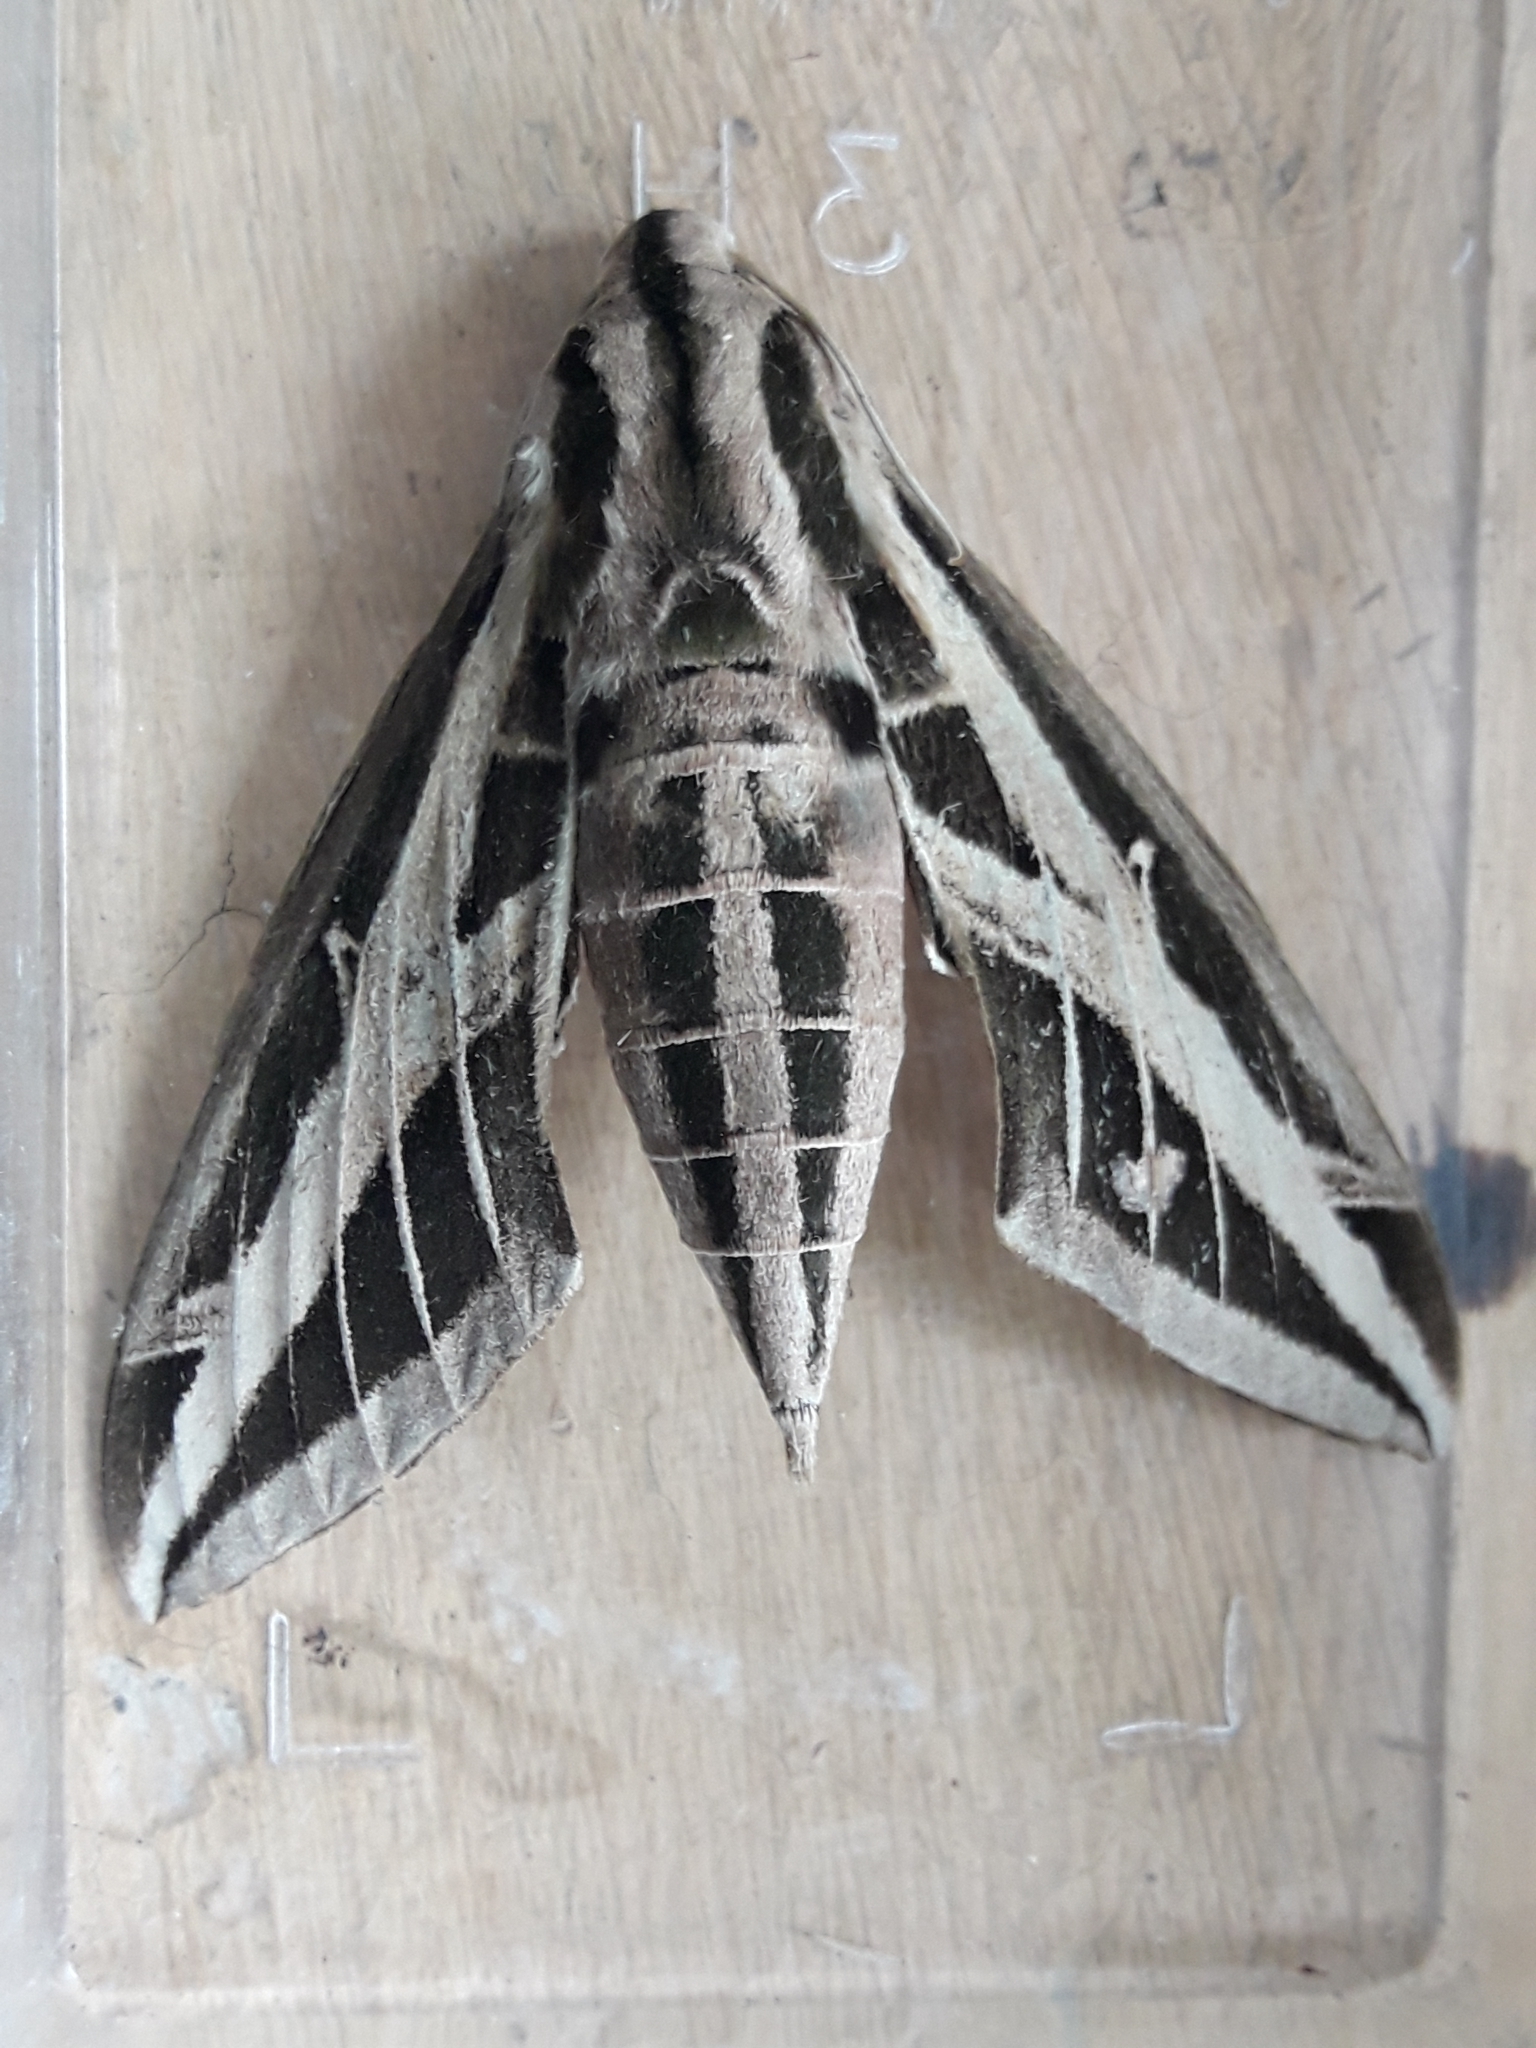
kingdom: Animalia
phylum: Arthropoda
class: Insecta
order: Lepidoptera
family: Sphingidae
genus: Eumorpha
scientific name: Eumorpha fasciatus
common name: Banded sphinx
